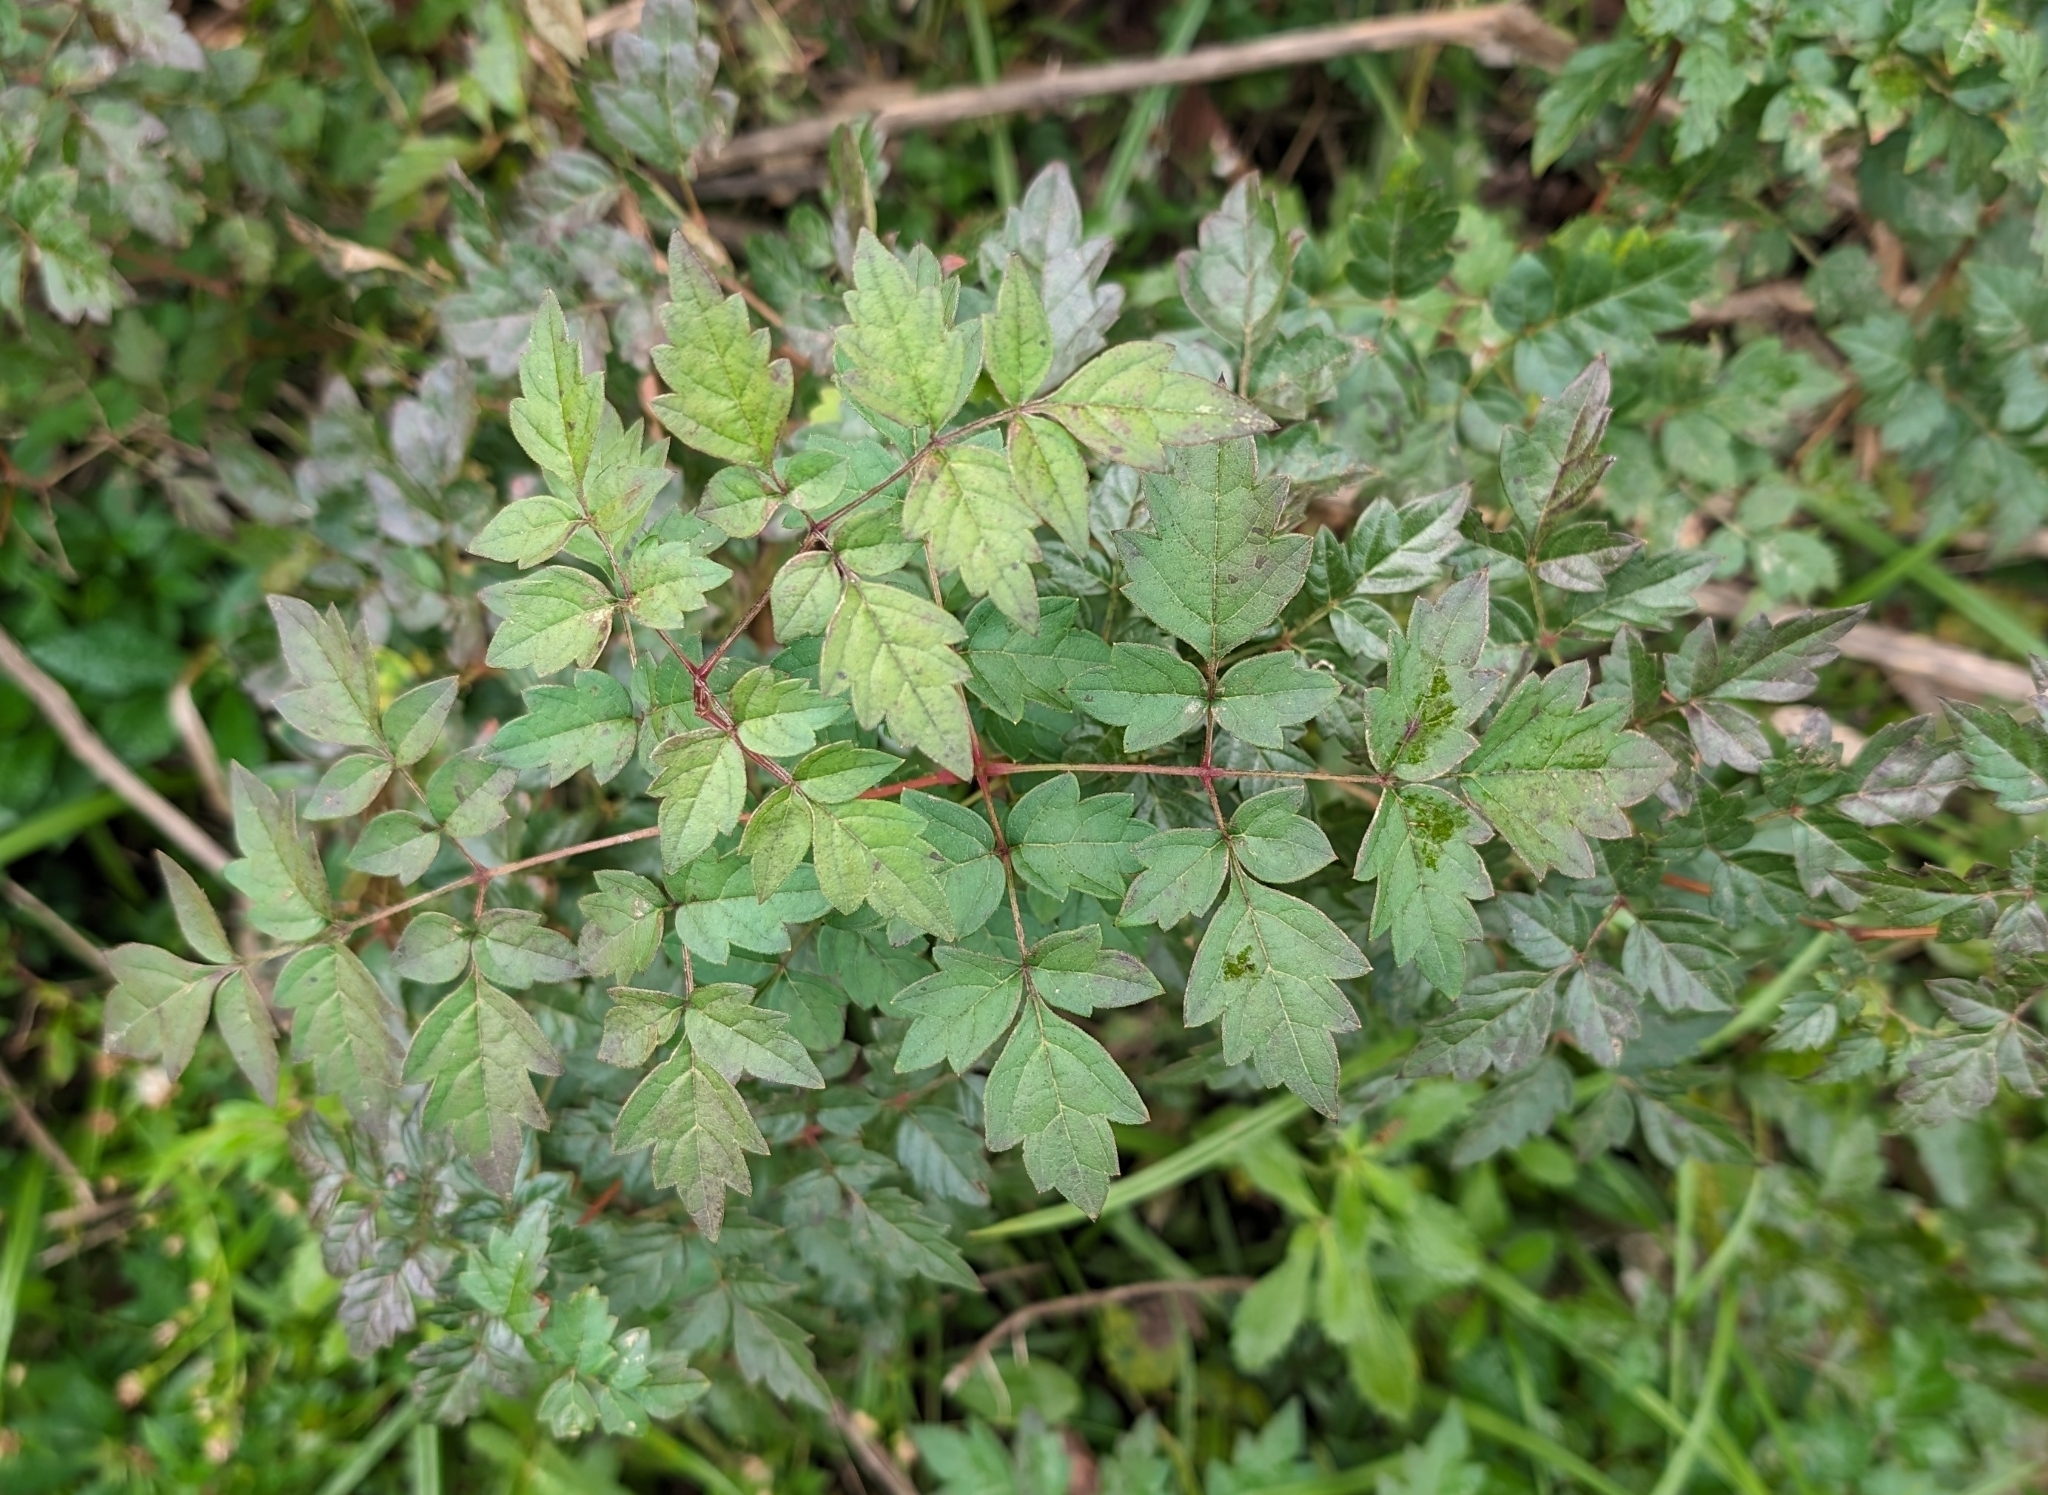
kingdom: Plantae
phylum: Tracheophyta
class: Magnoliopsida
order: Vitales
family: Vitaceae
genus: Nekemias
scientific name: Nekemias arborea
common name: Peppervine
